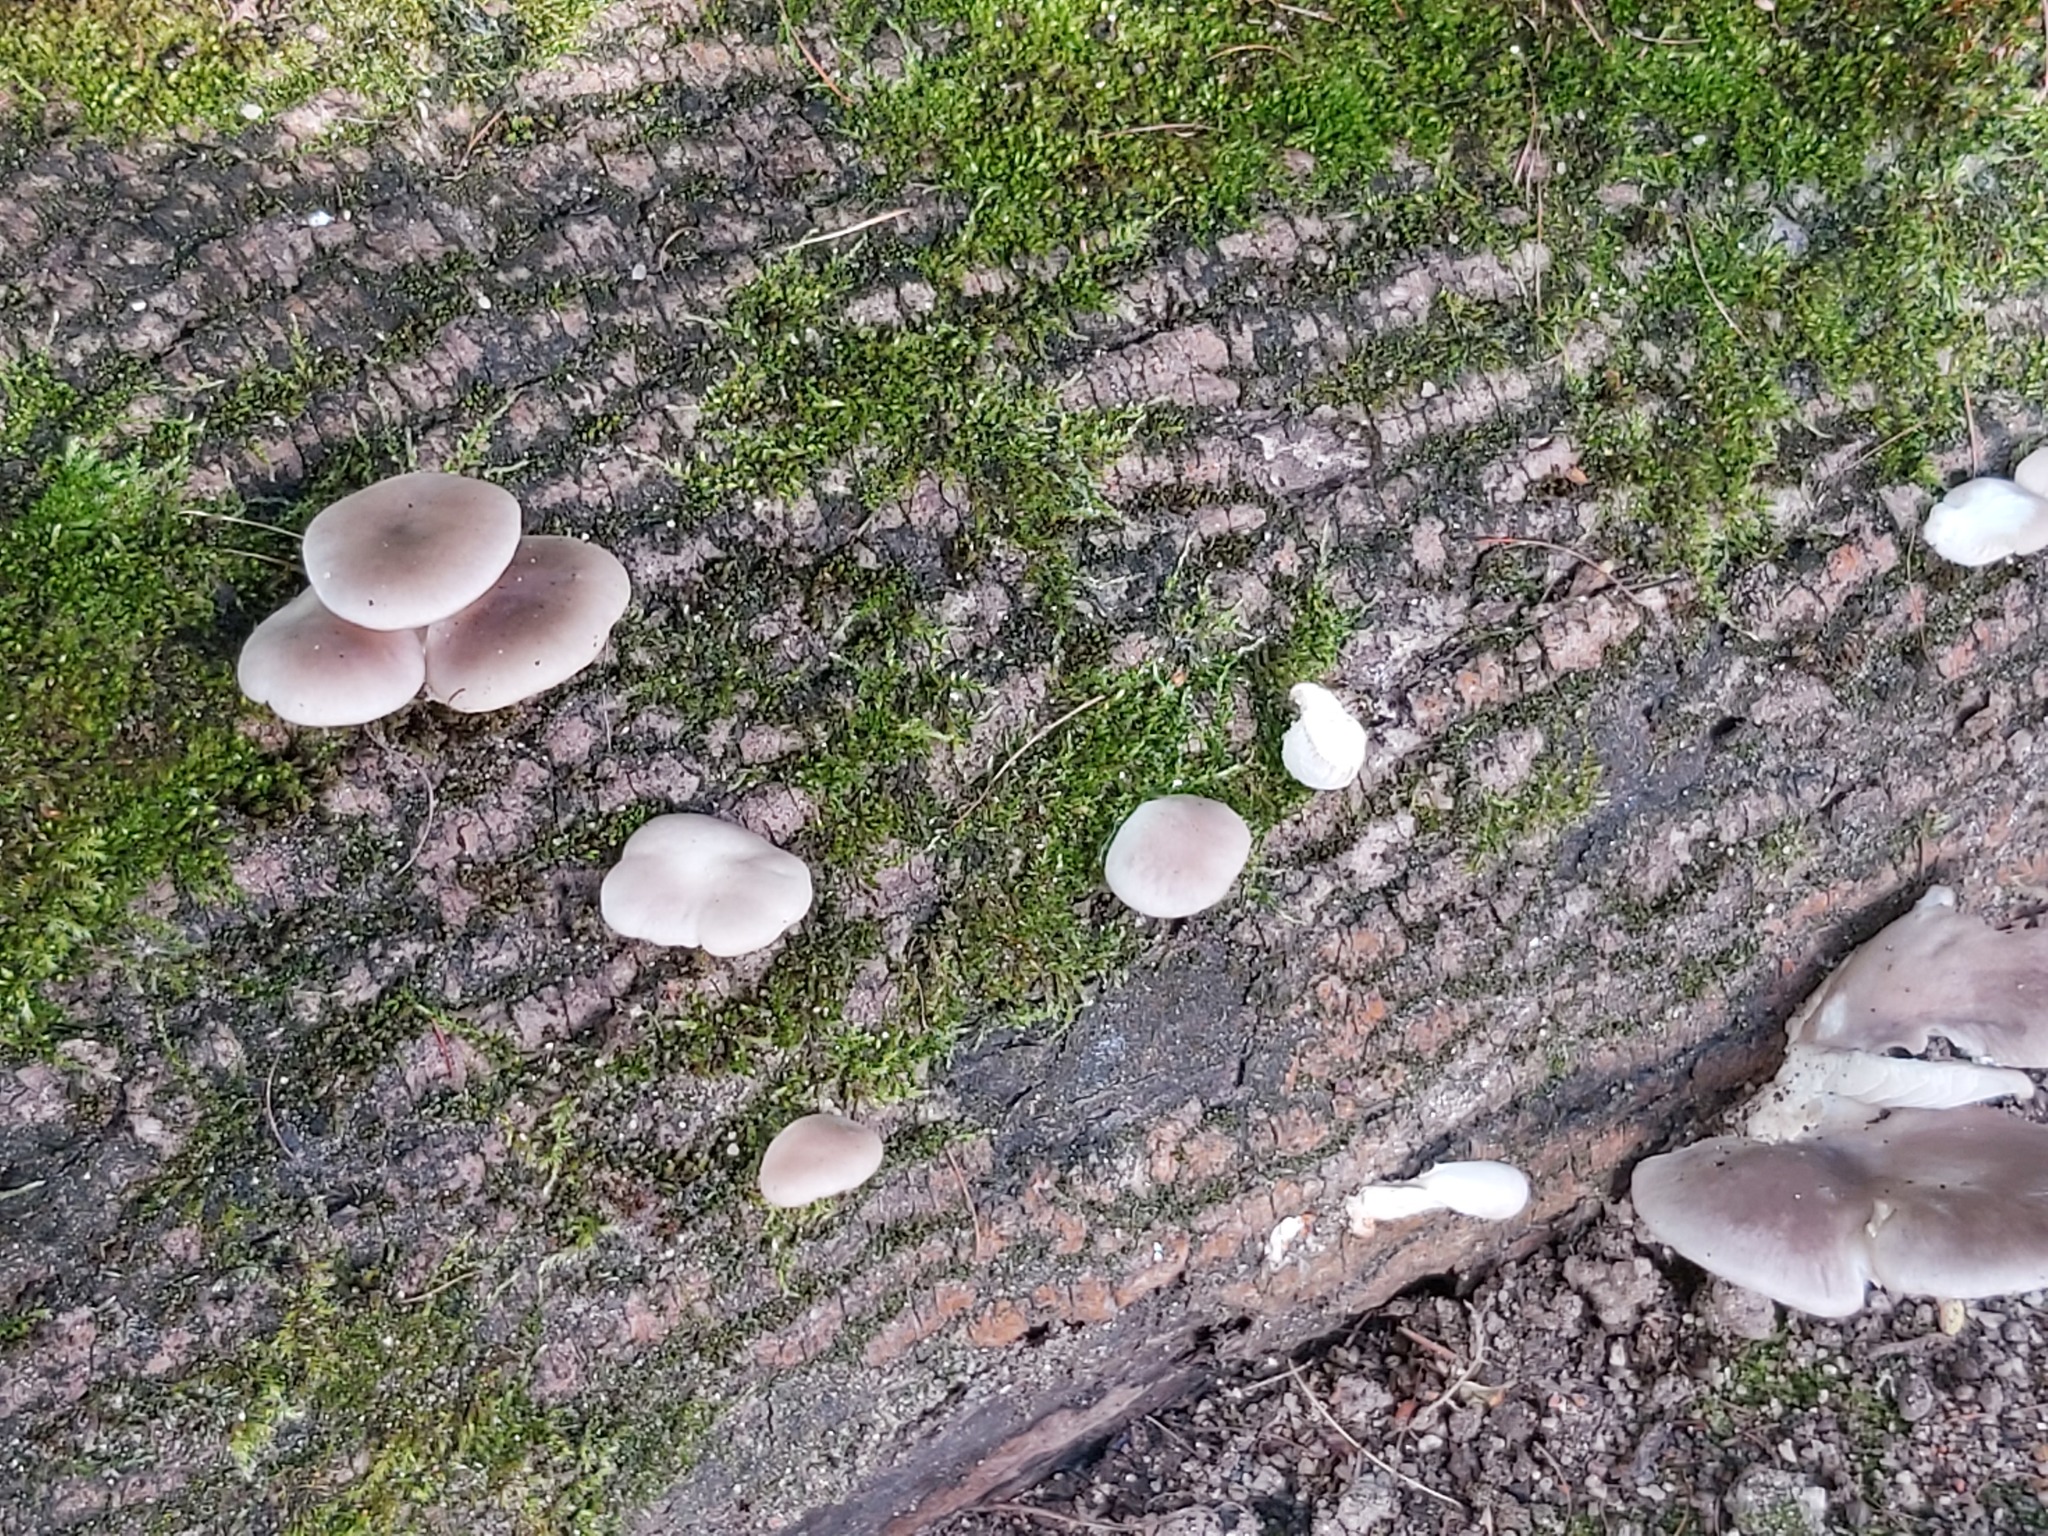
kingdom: Fungi
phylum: Basidiomycota
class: Agaricomycetes
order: Agaricales
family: Pleurotaceae
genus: Pleurotus
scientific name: Pleurotus ostreatus
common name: Oyster mushroom
